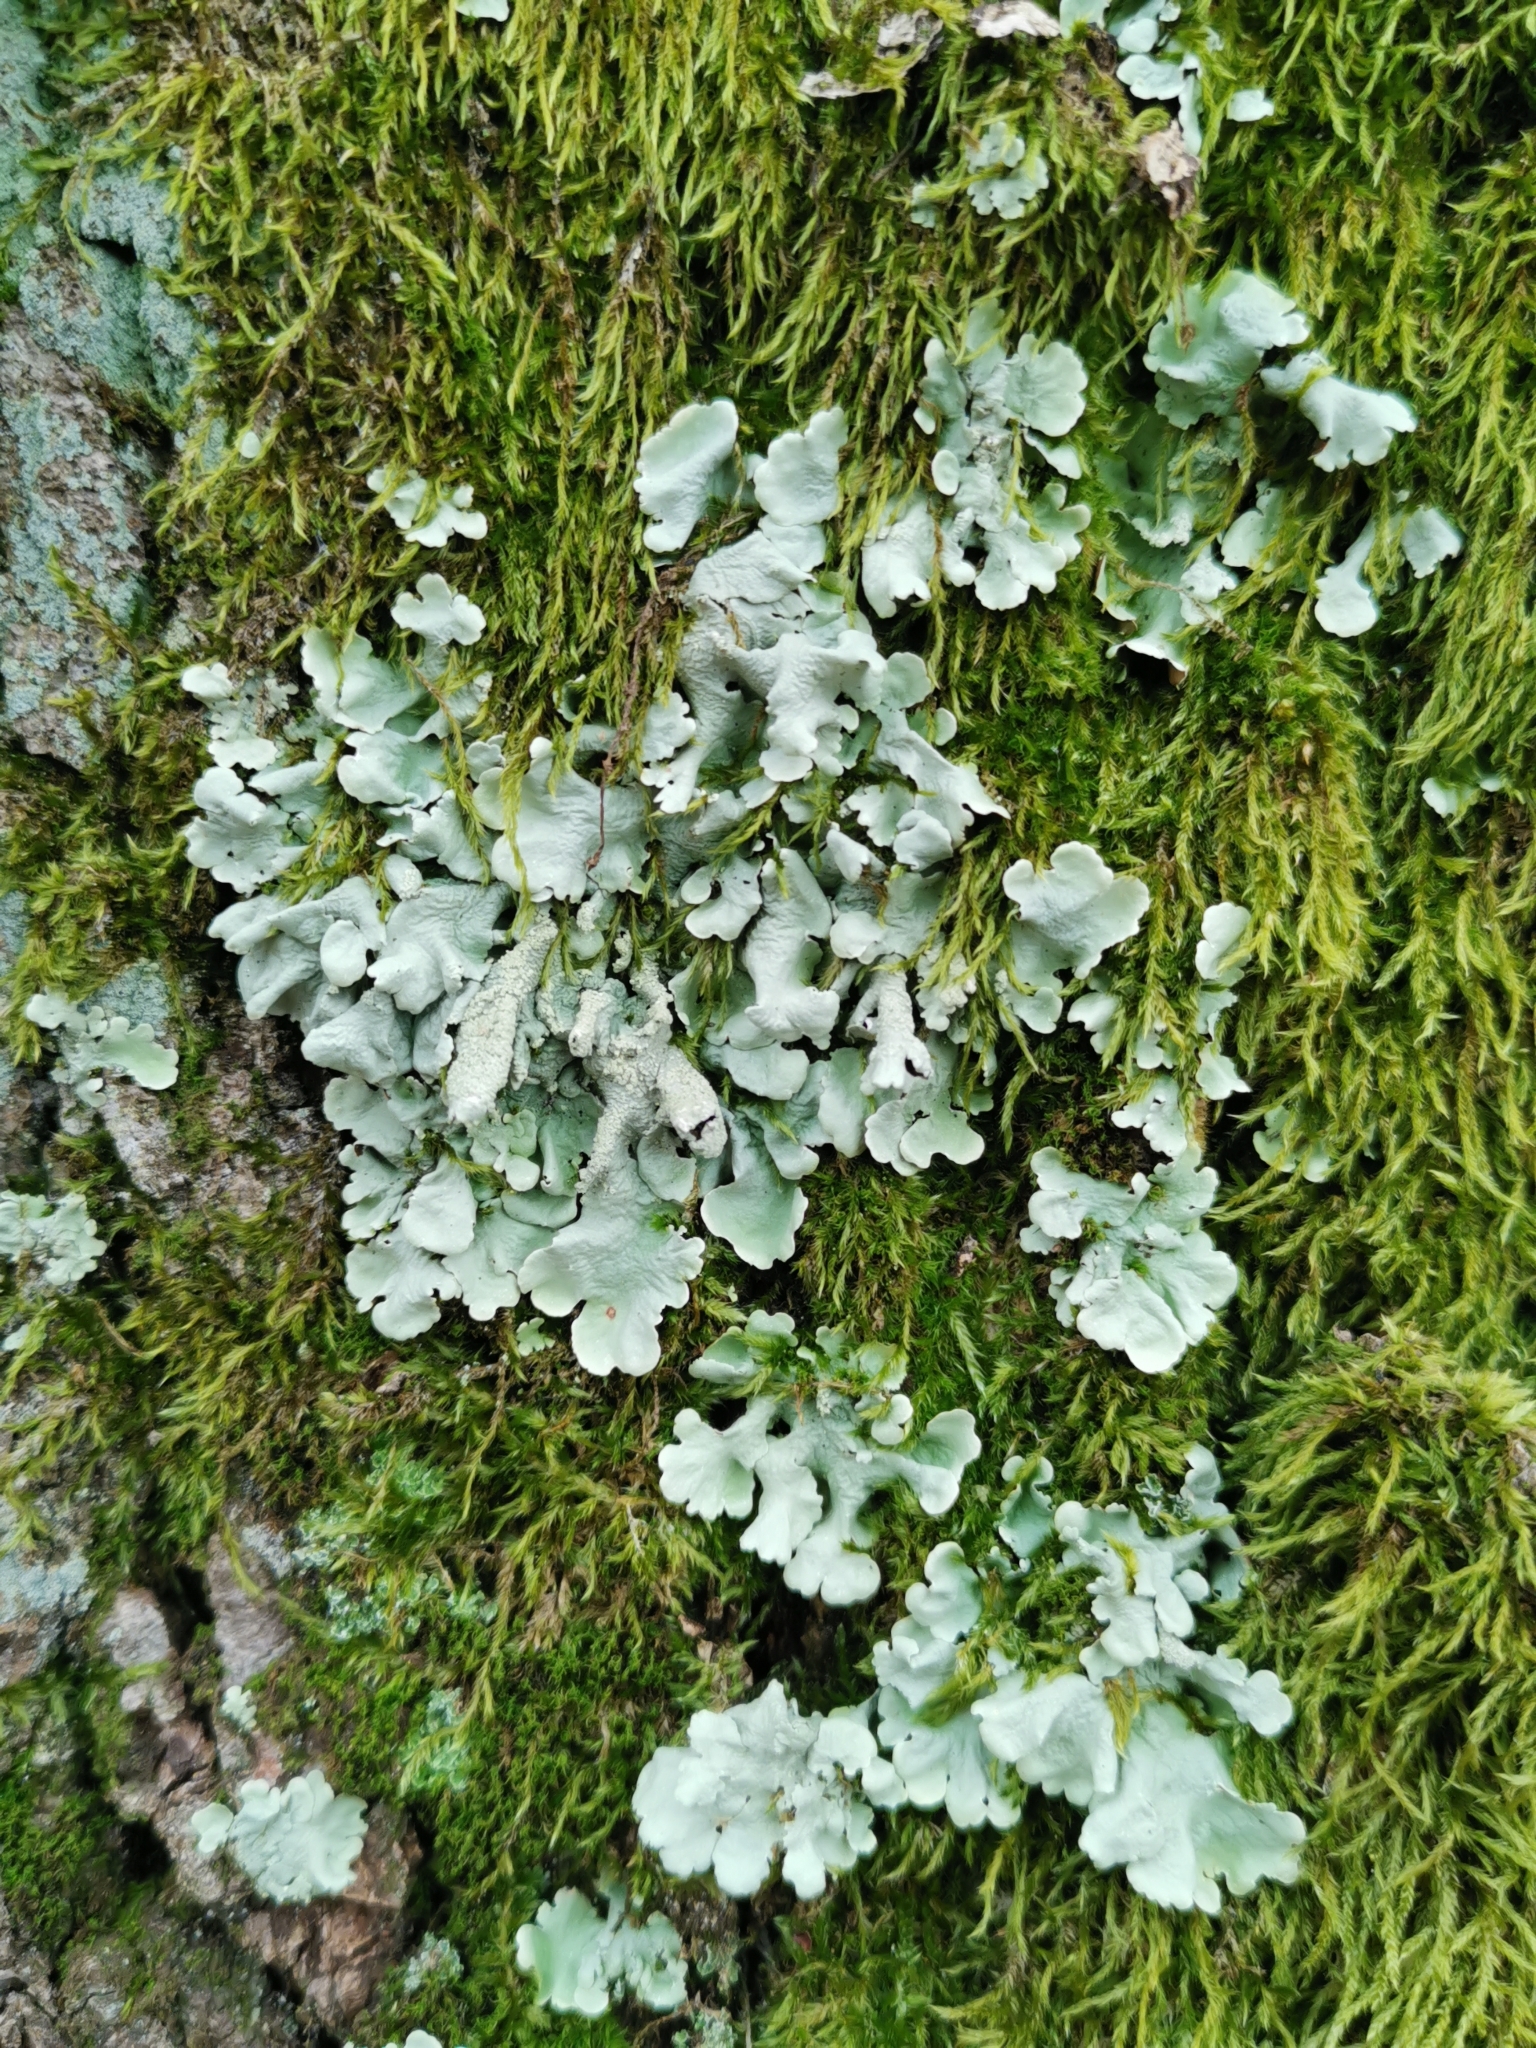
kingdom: Fungi
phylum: Ascomycota
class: Lecanoromycetes
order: Lecanorales
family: Parmeliaceae
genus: Flavoparmelia
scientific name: Flavoparmelia caperata
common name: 40-mile per hour lichen
